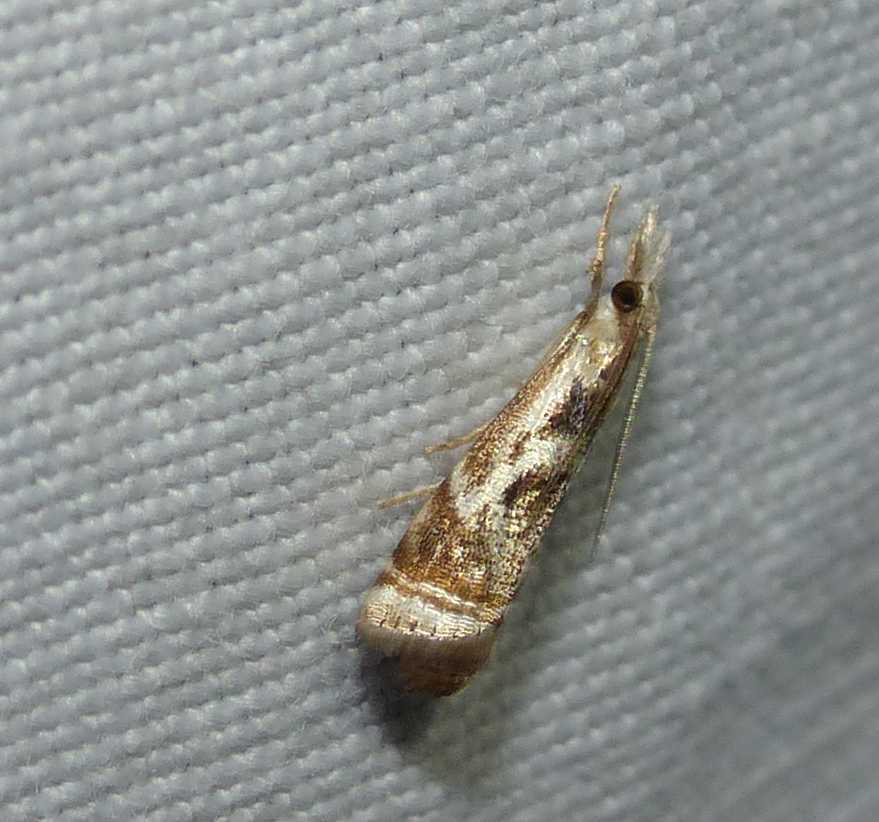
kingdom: Animalia
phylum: Arthropoda
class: Insecta
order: Lepidoptera
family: Crambidae
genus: Microcrambus
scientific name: Microcrambus elegans
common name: Elegant grass-veneer
